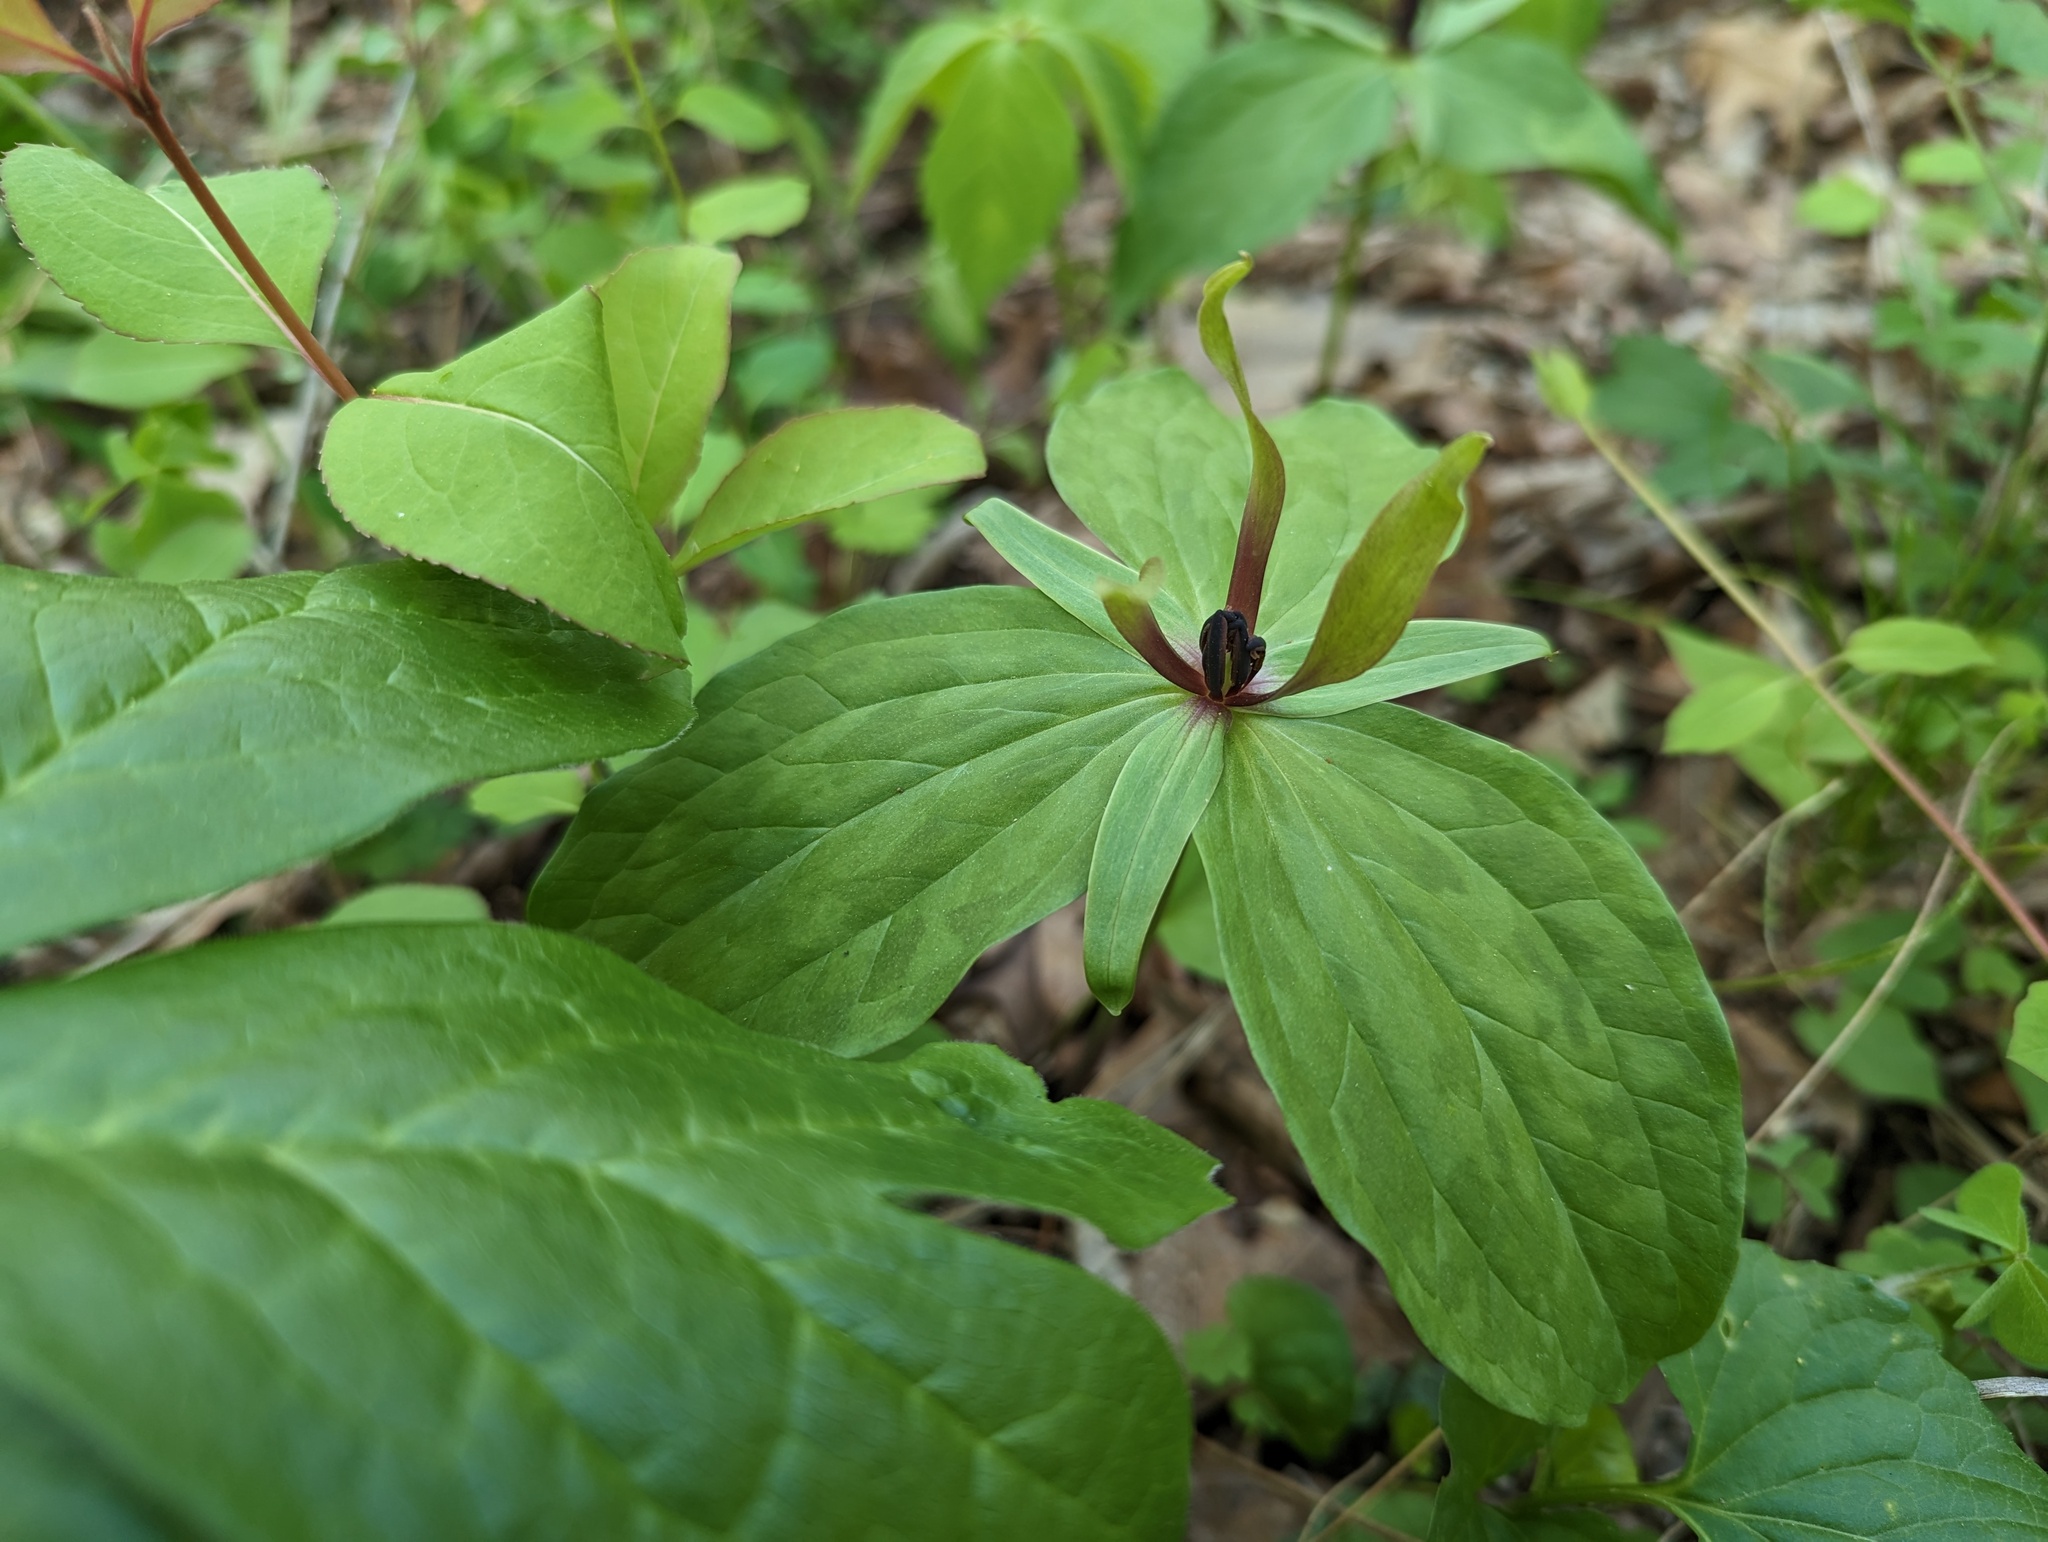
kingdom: Plantae
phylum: Tracheophyta
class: Liliopsida
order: Liliales
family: Melanthiaceae
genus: Trillium
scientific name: Trillium viride
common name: Green trillium
